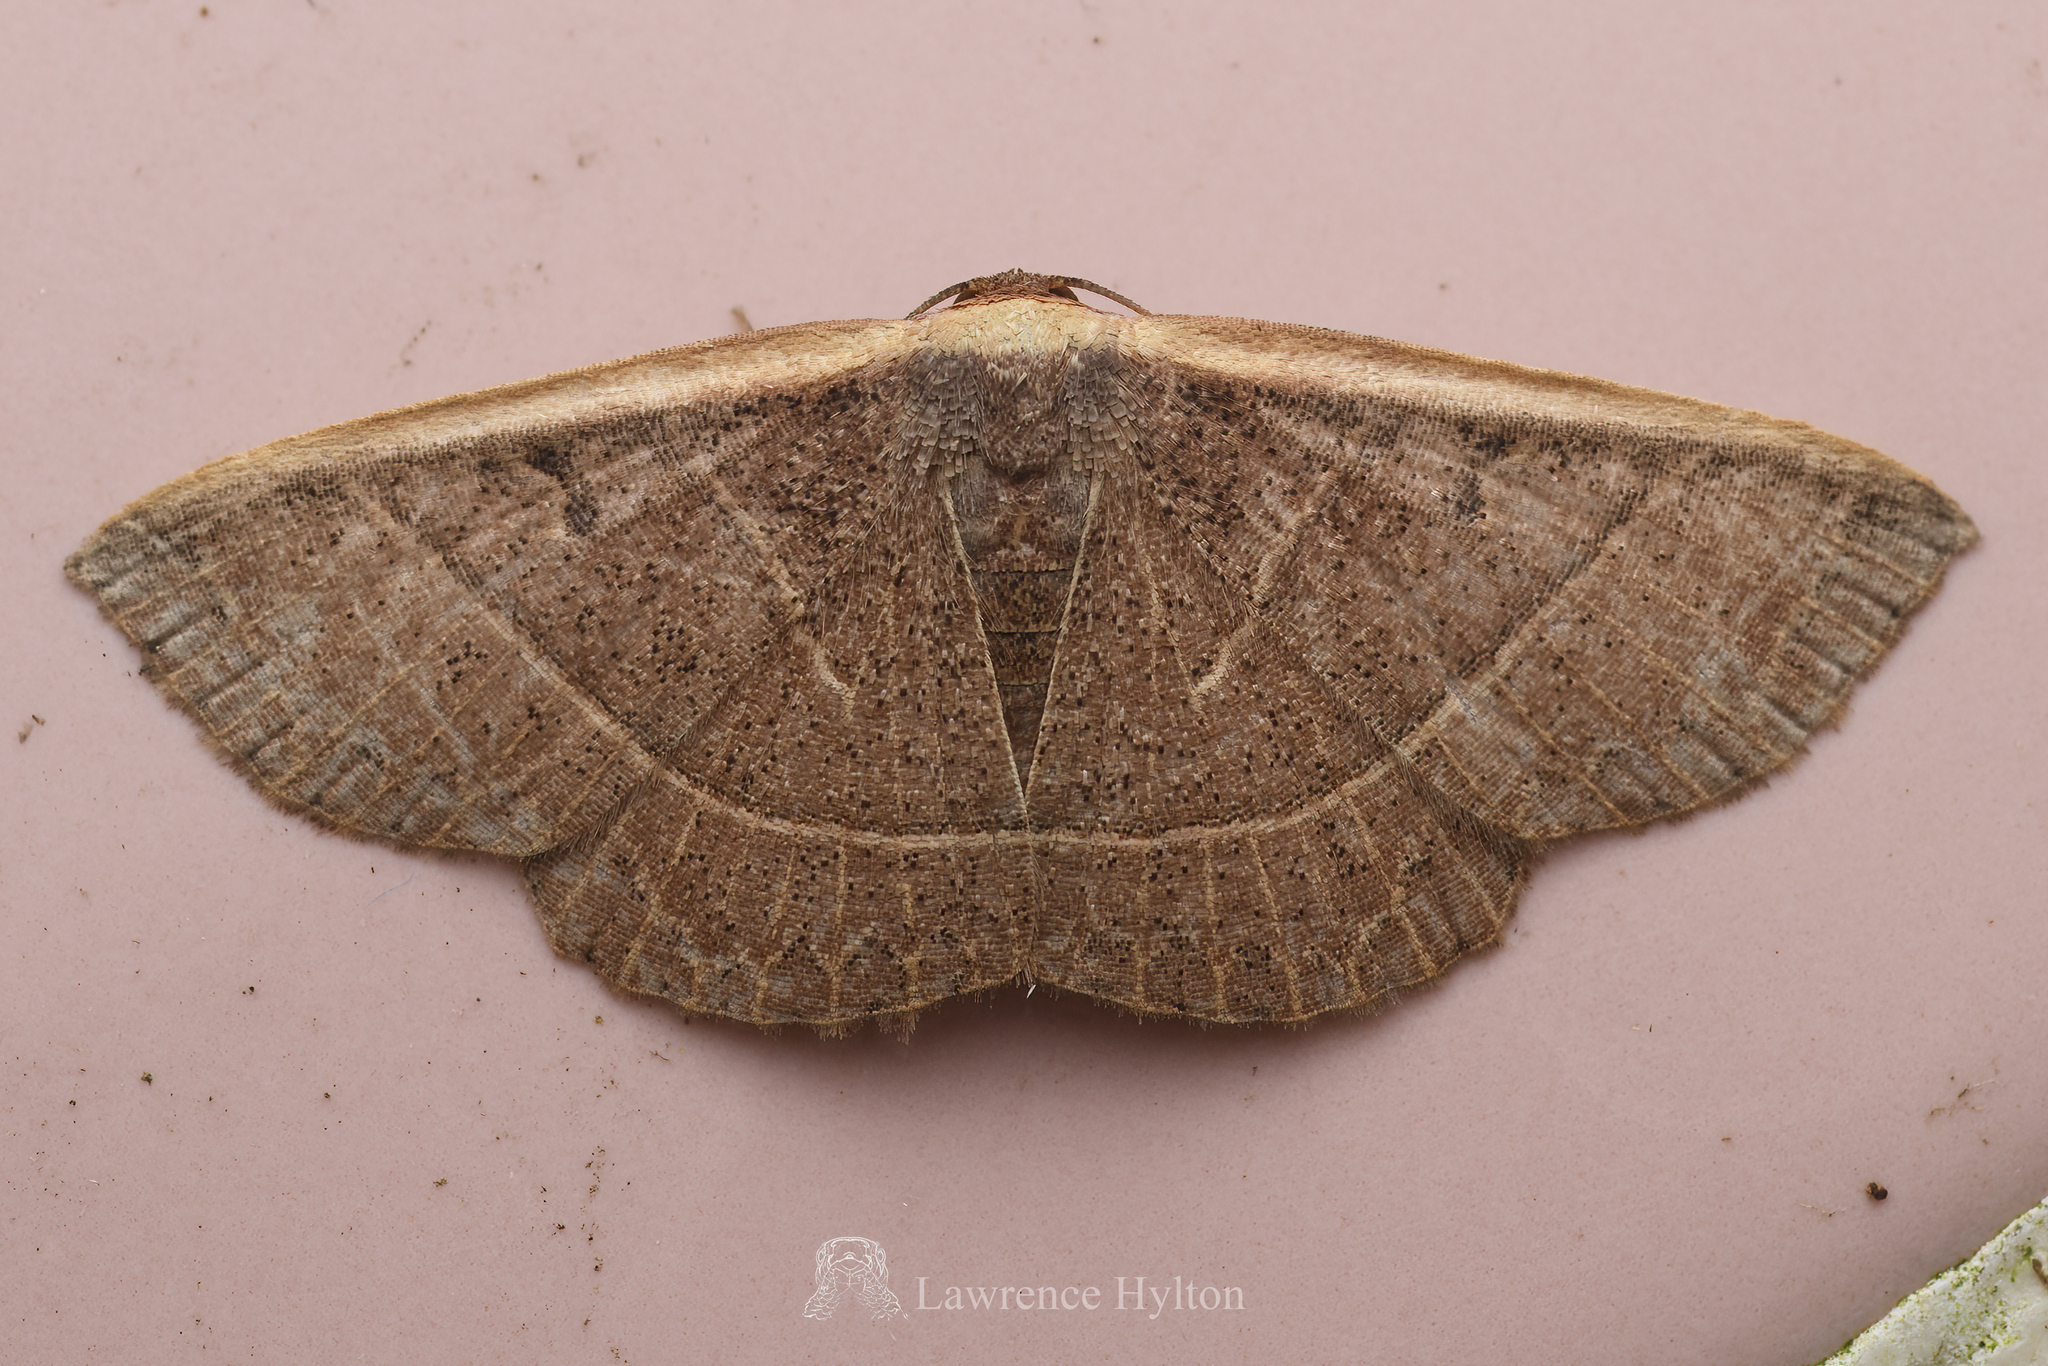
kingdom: Animalia
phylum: Arthropoda
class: Insecta
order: Lepidoptera
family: Noctuidae
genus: Oruza
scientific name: Oruza mira
